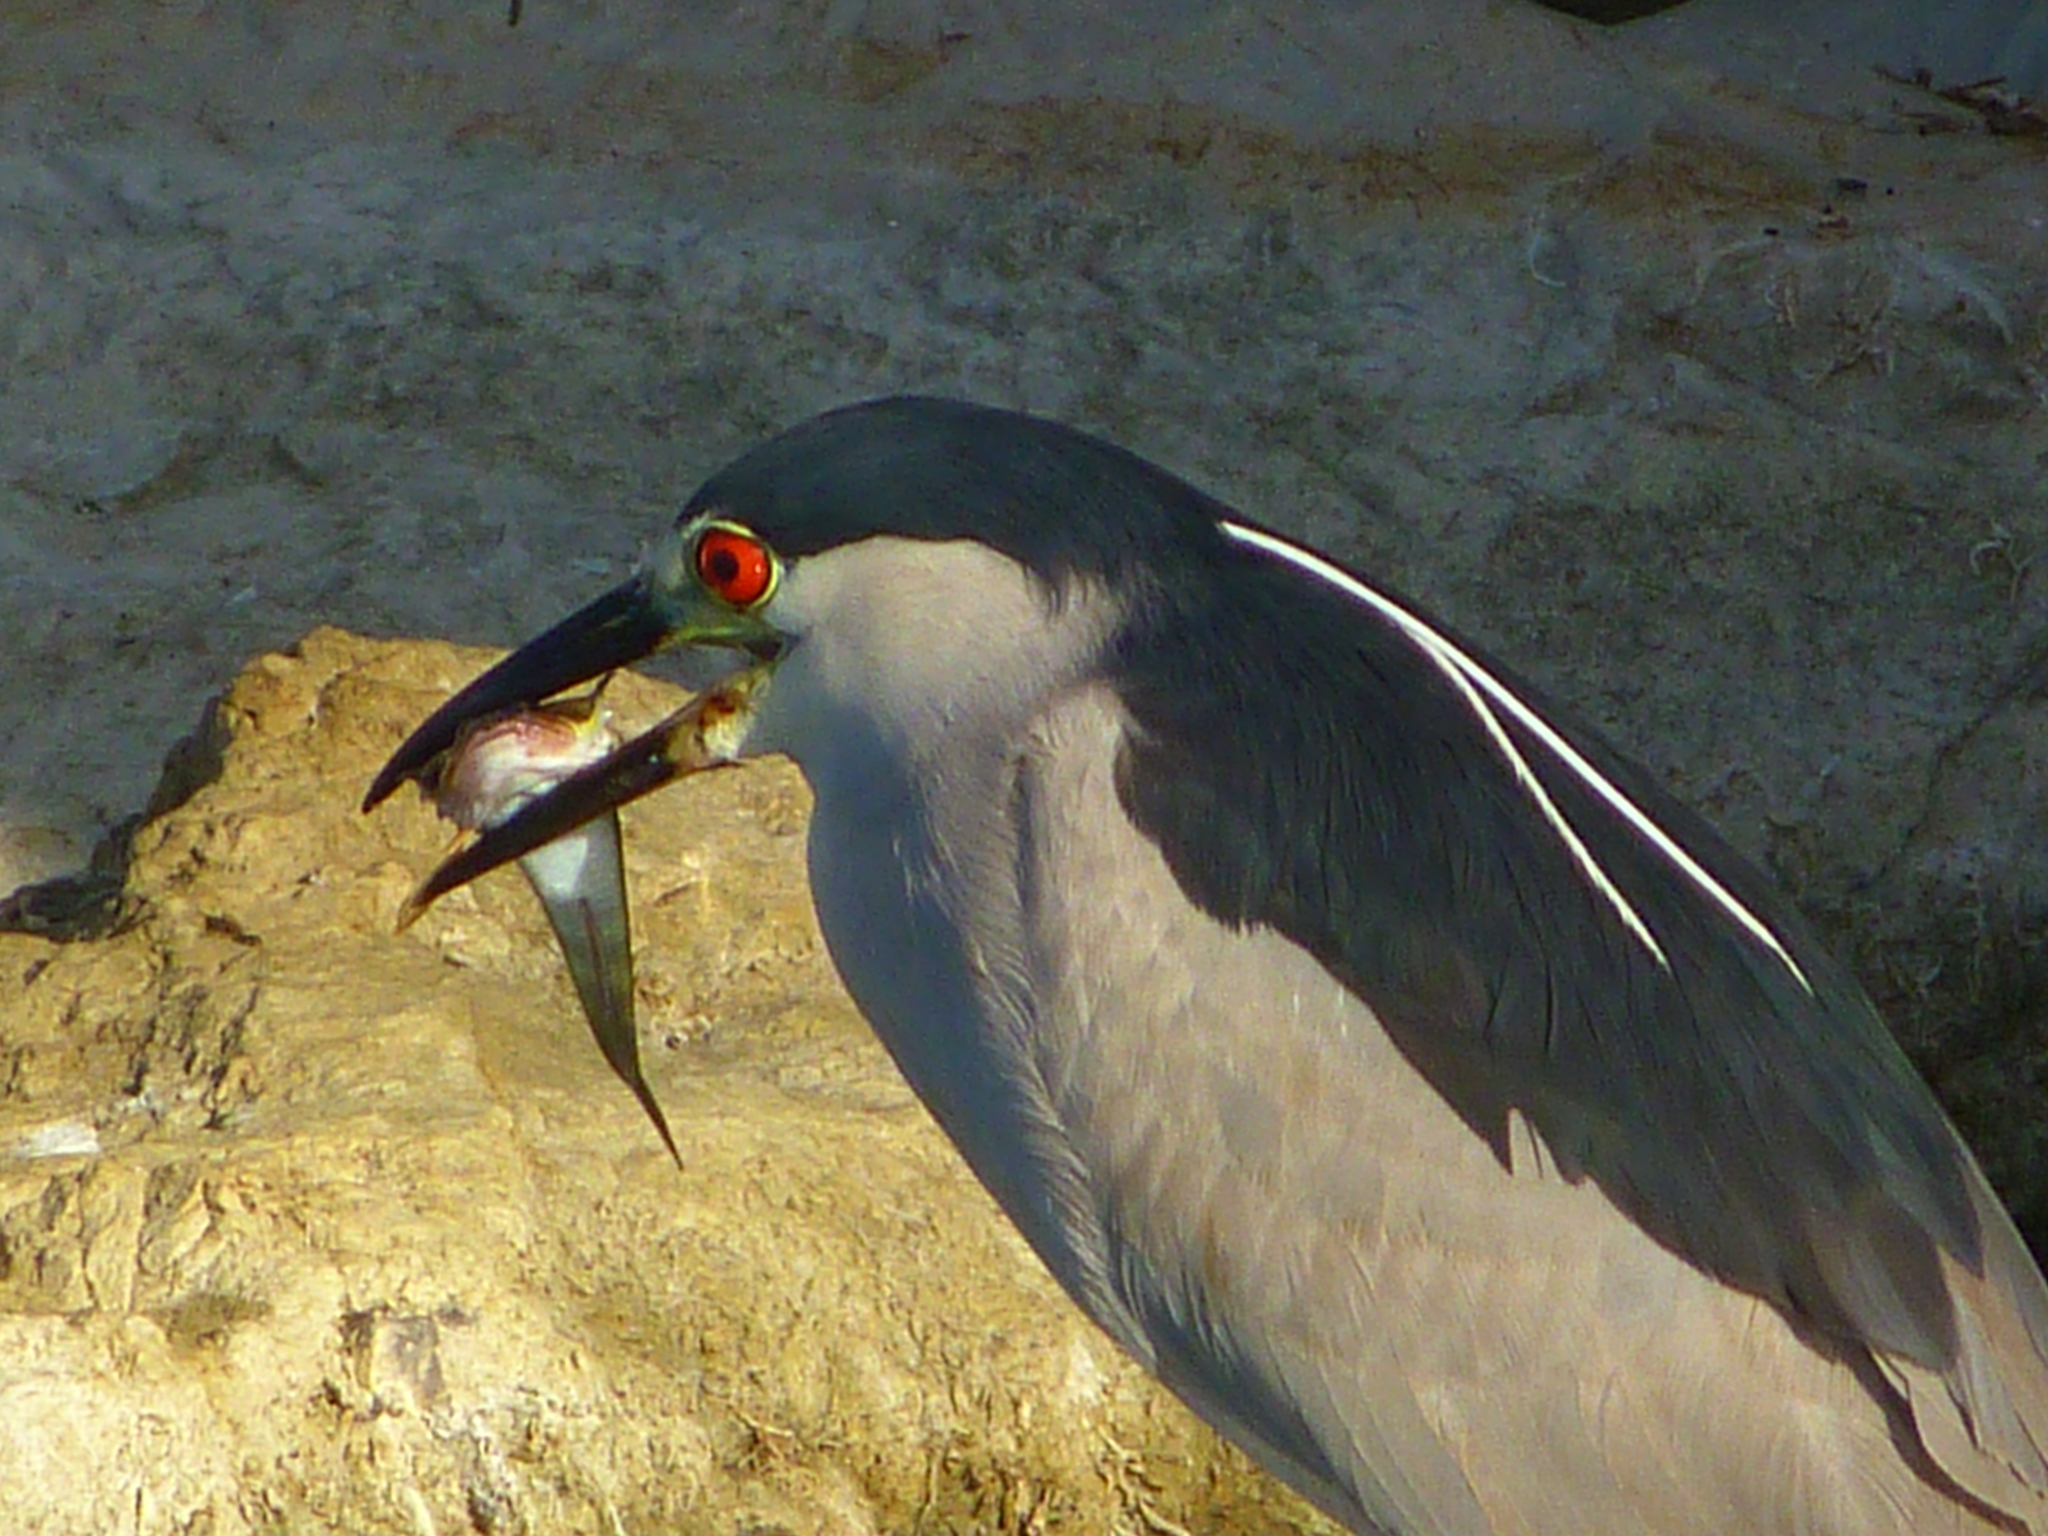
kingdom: Animalia
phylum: Chordata
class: Aves
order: Pelecaniformes
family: Ardeidae
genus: Nycticorax
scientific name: Nycticorax nycticorax
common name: Black-crowned night heron
